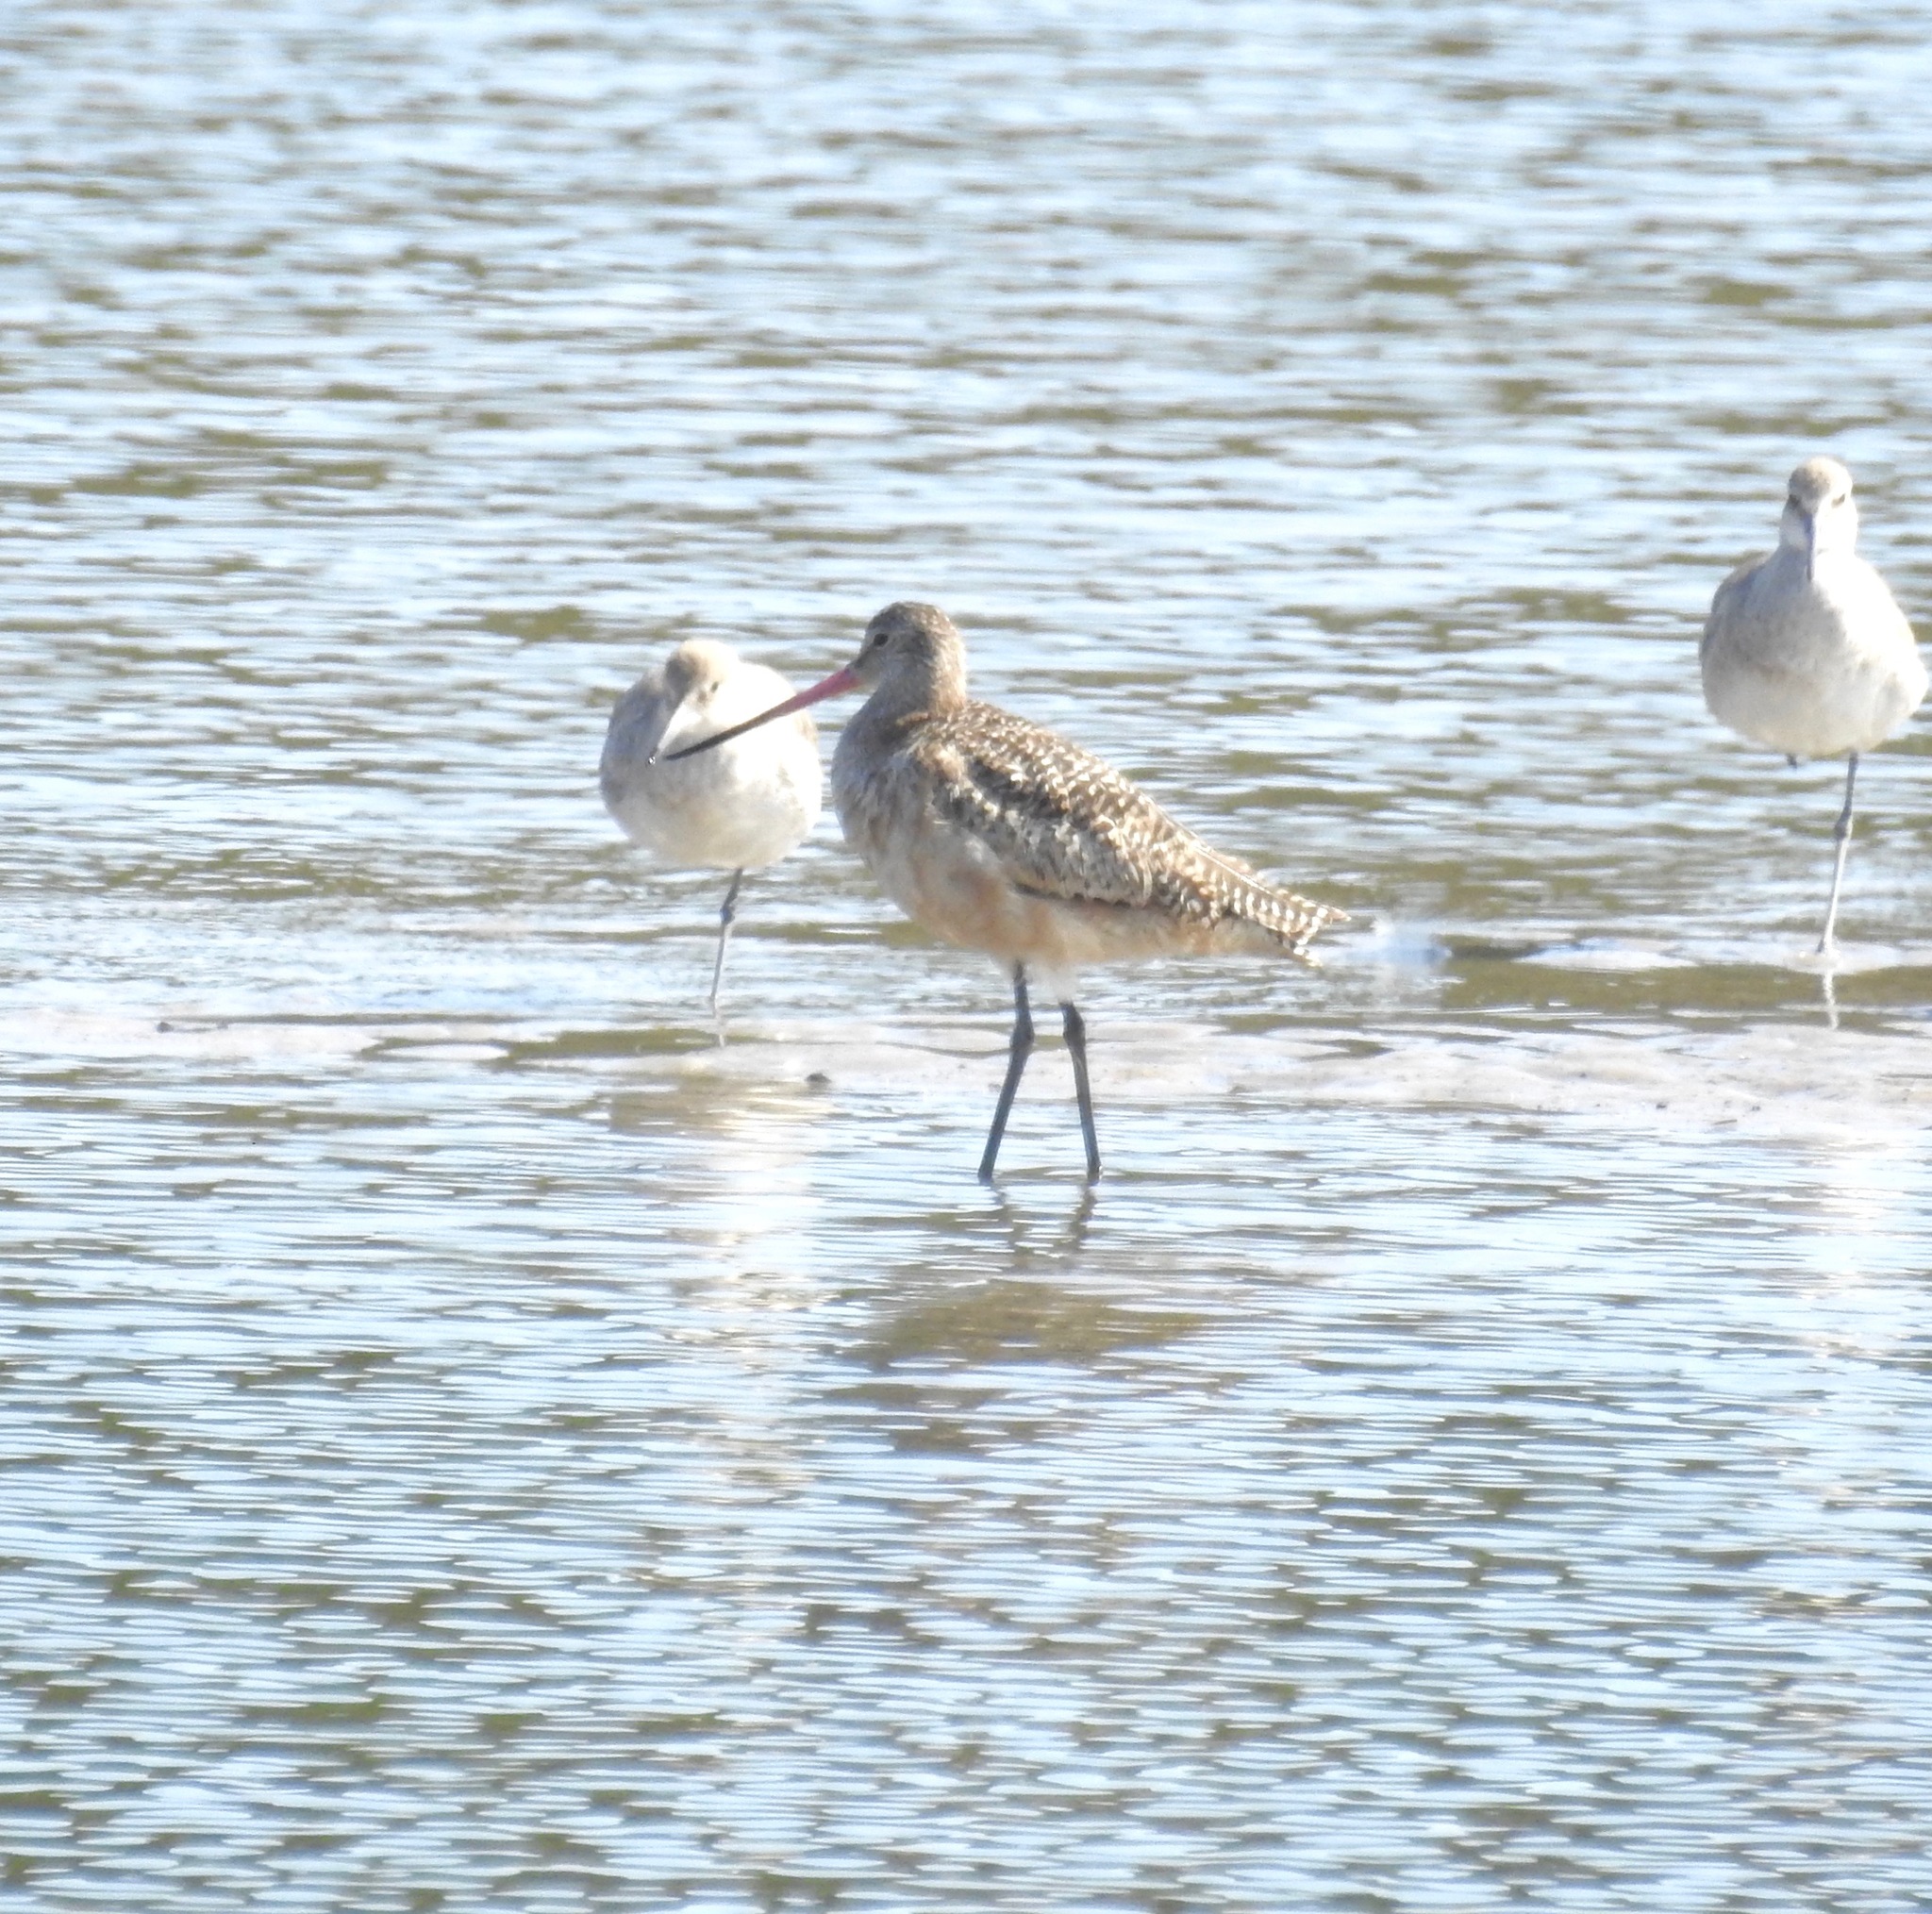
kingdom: Animalia
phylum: Chordata
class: Aves
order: Charadriiformes
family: Scolopacidae
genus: Limosa
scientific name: Limosa fedoa
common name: Marbled godwit
